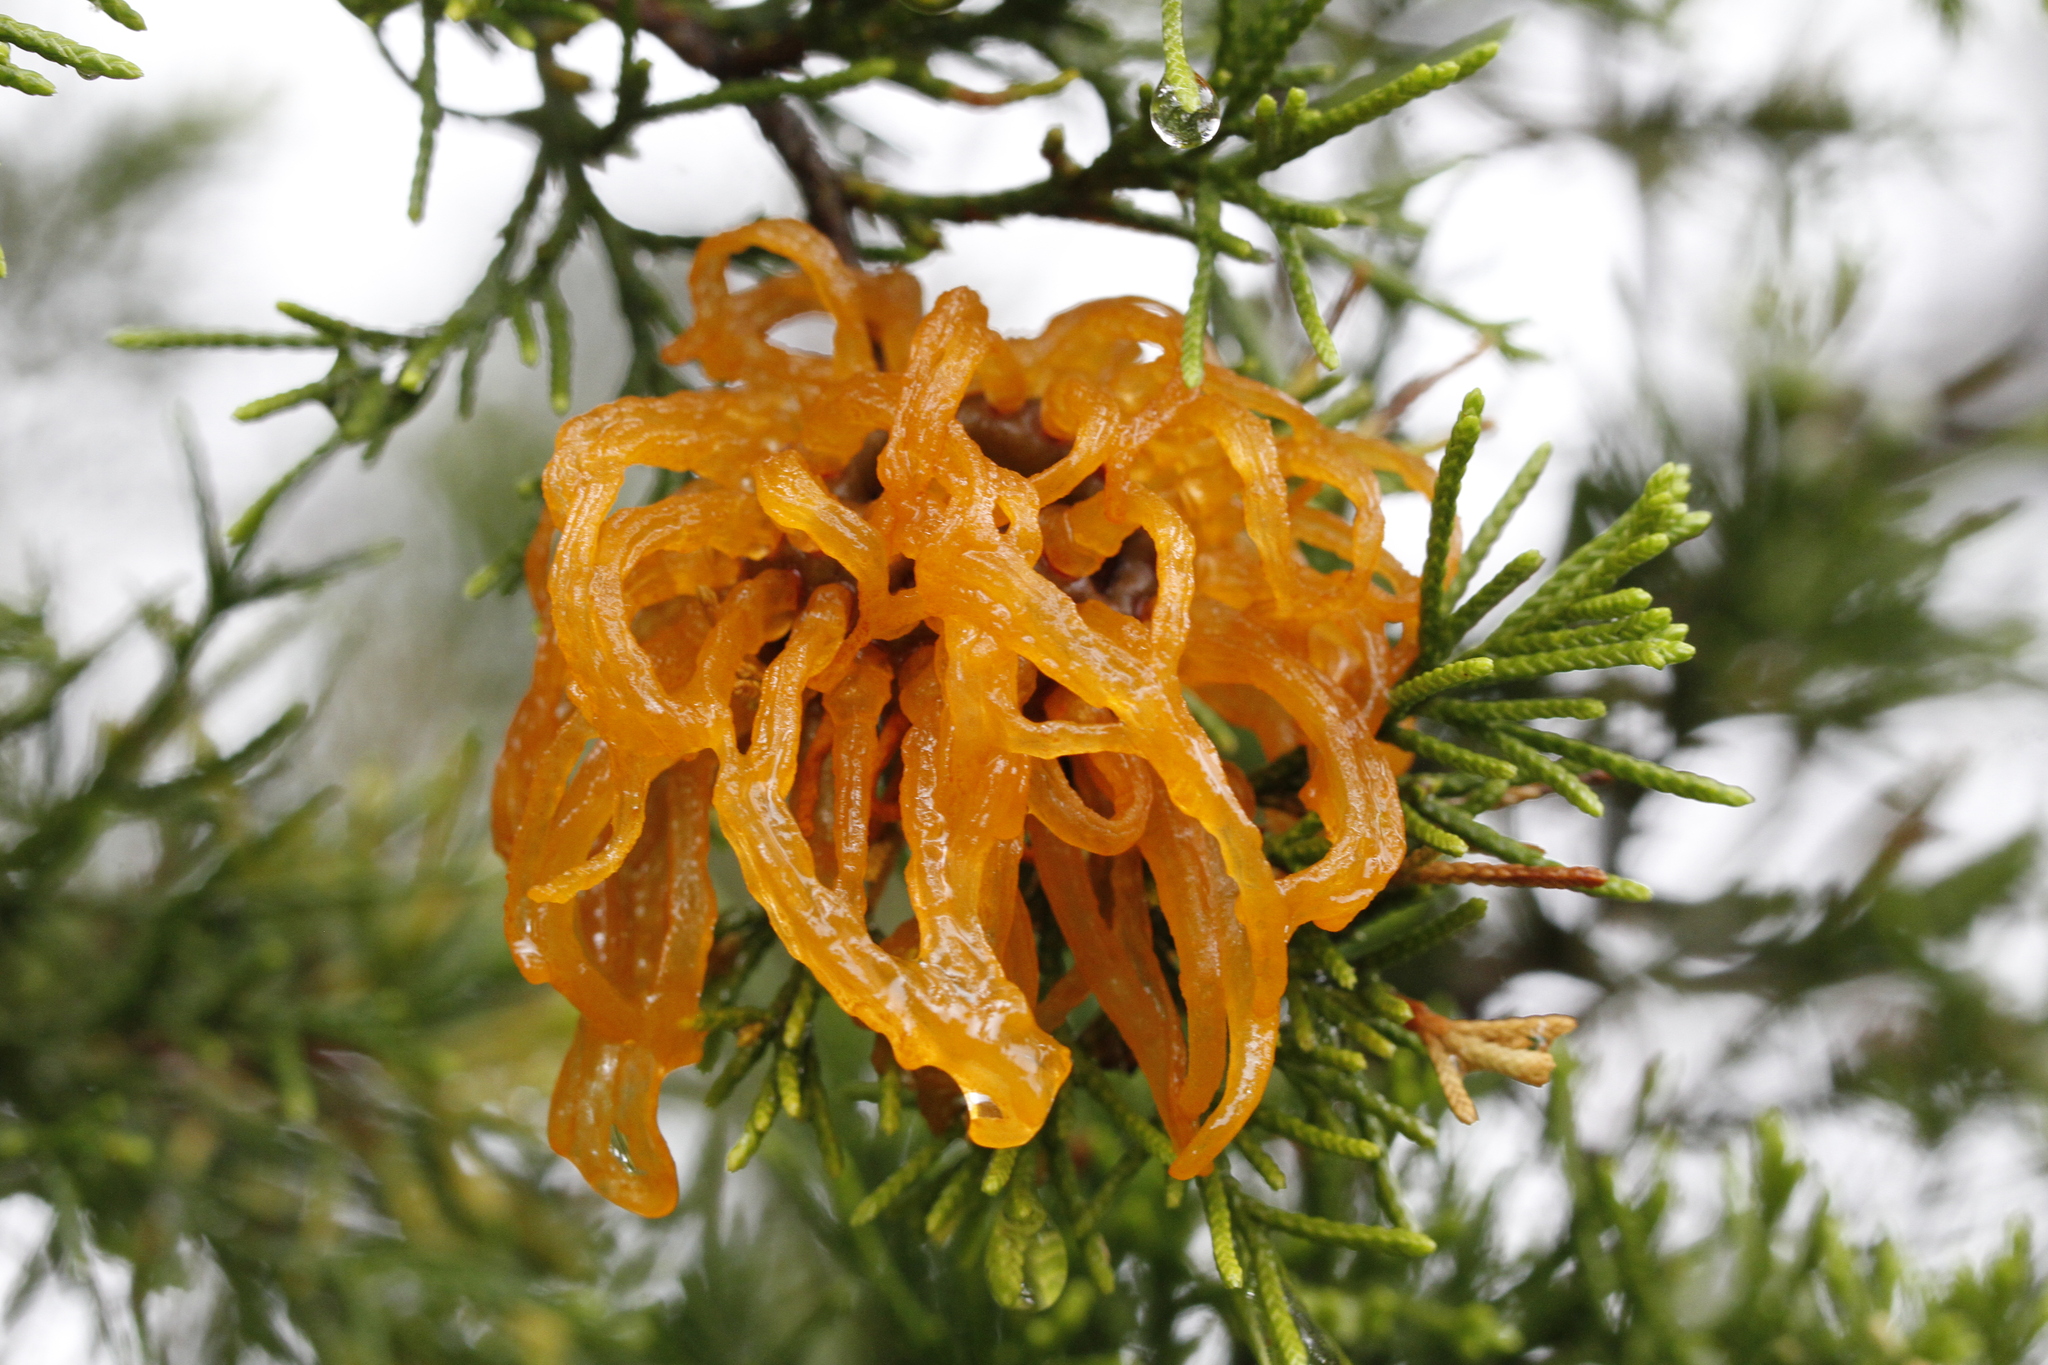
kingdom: Fungi
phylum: Basidiomycota
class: Pucciniomycetes
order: Pucciniales
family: Gymnosporangiaceae
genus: Gymnosporangium
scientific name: Gymnosporangium juniperi-virginianae
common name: Juniper-apple rust
